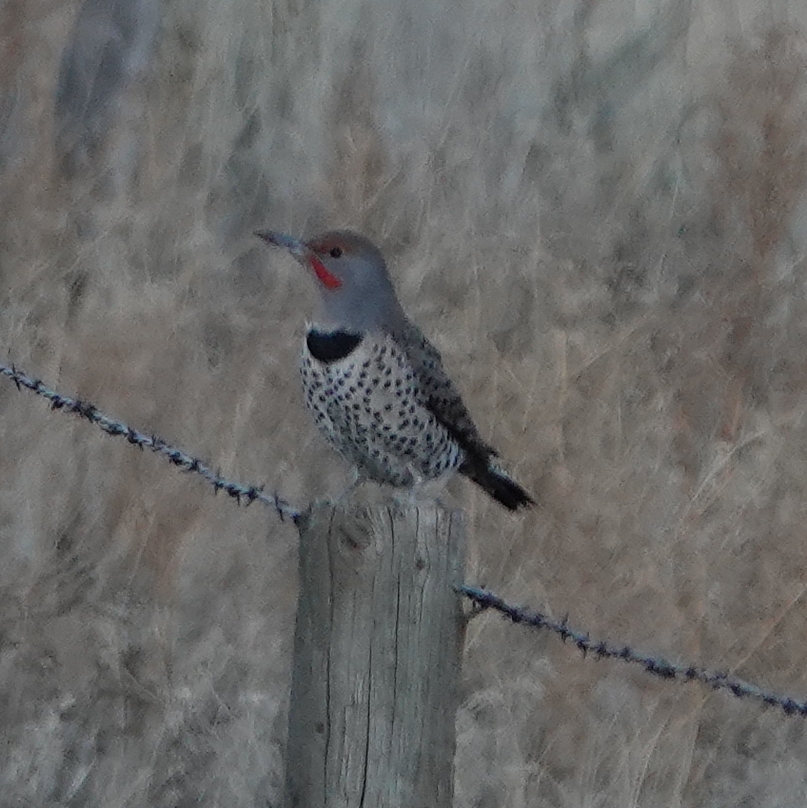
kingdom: Animalia
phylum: Chordata
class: Aves
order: Piciformes
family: Picidae
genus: Colaptes
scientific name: Colaptes auratus
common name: Northern flicker
